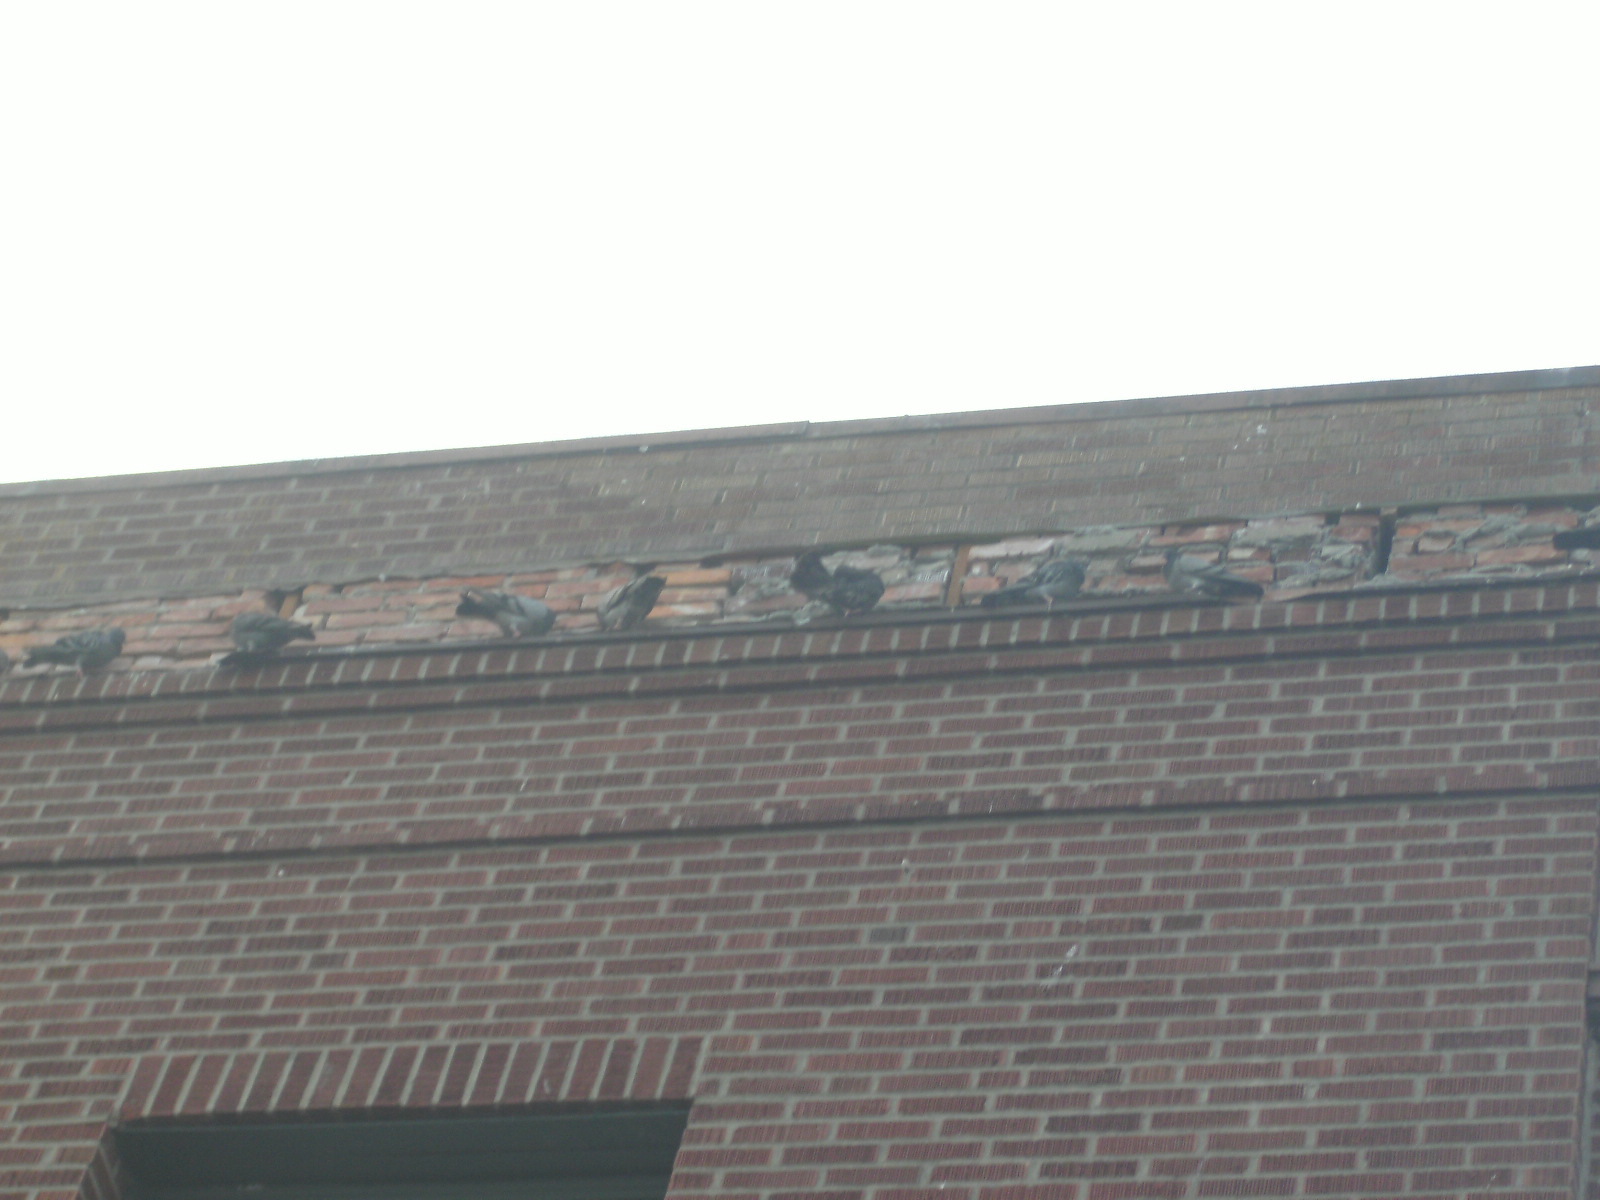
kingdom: Animalia
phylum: Chordata
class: Aves
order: Columbiformes
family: Columbidae
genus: Columba
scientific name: Columba livia
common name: Rock pigeon
